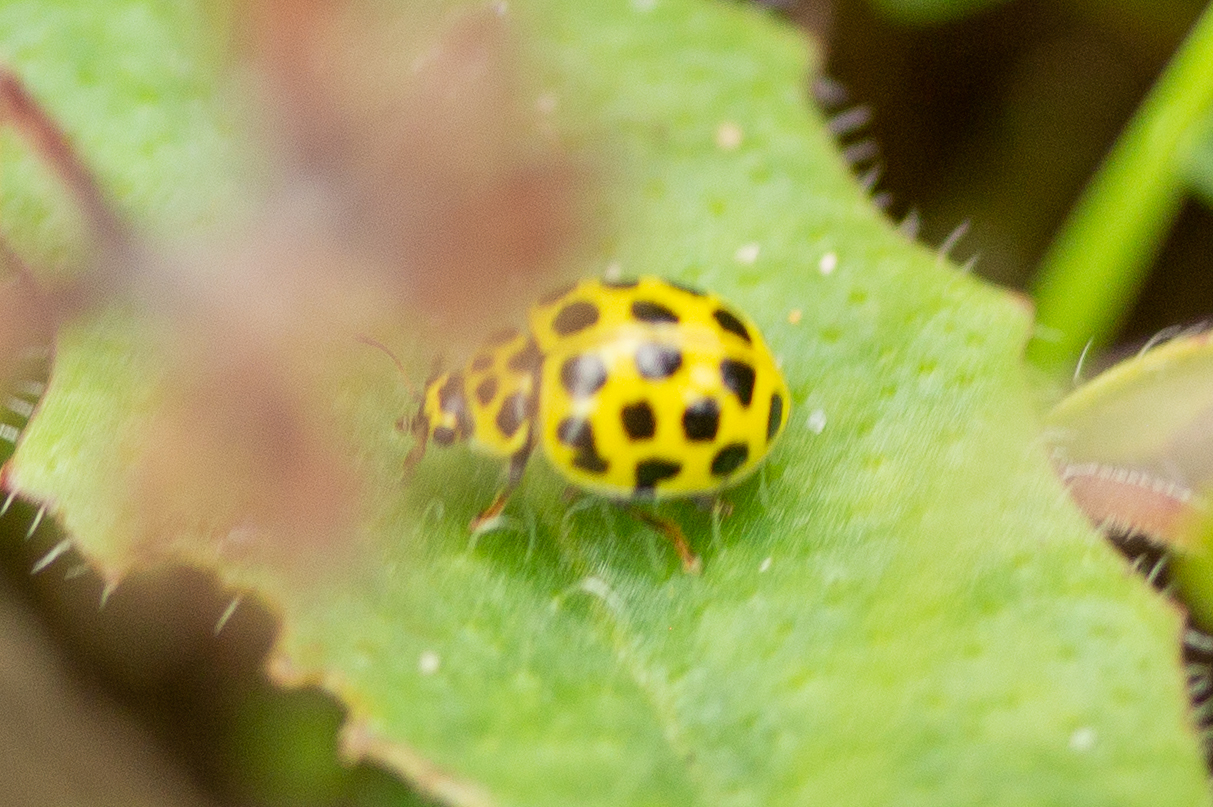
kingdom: Animalia
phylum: Arthropoda
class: Insecta
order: Coleoptera
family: Coccinellidae
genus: Psyllobora
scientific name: Psyllobora vigintiduopunctata
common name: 22-spot ladybird
